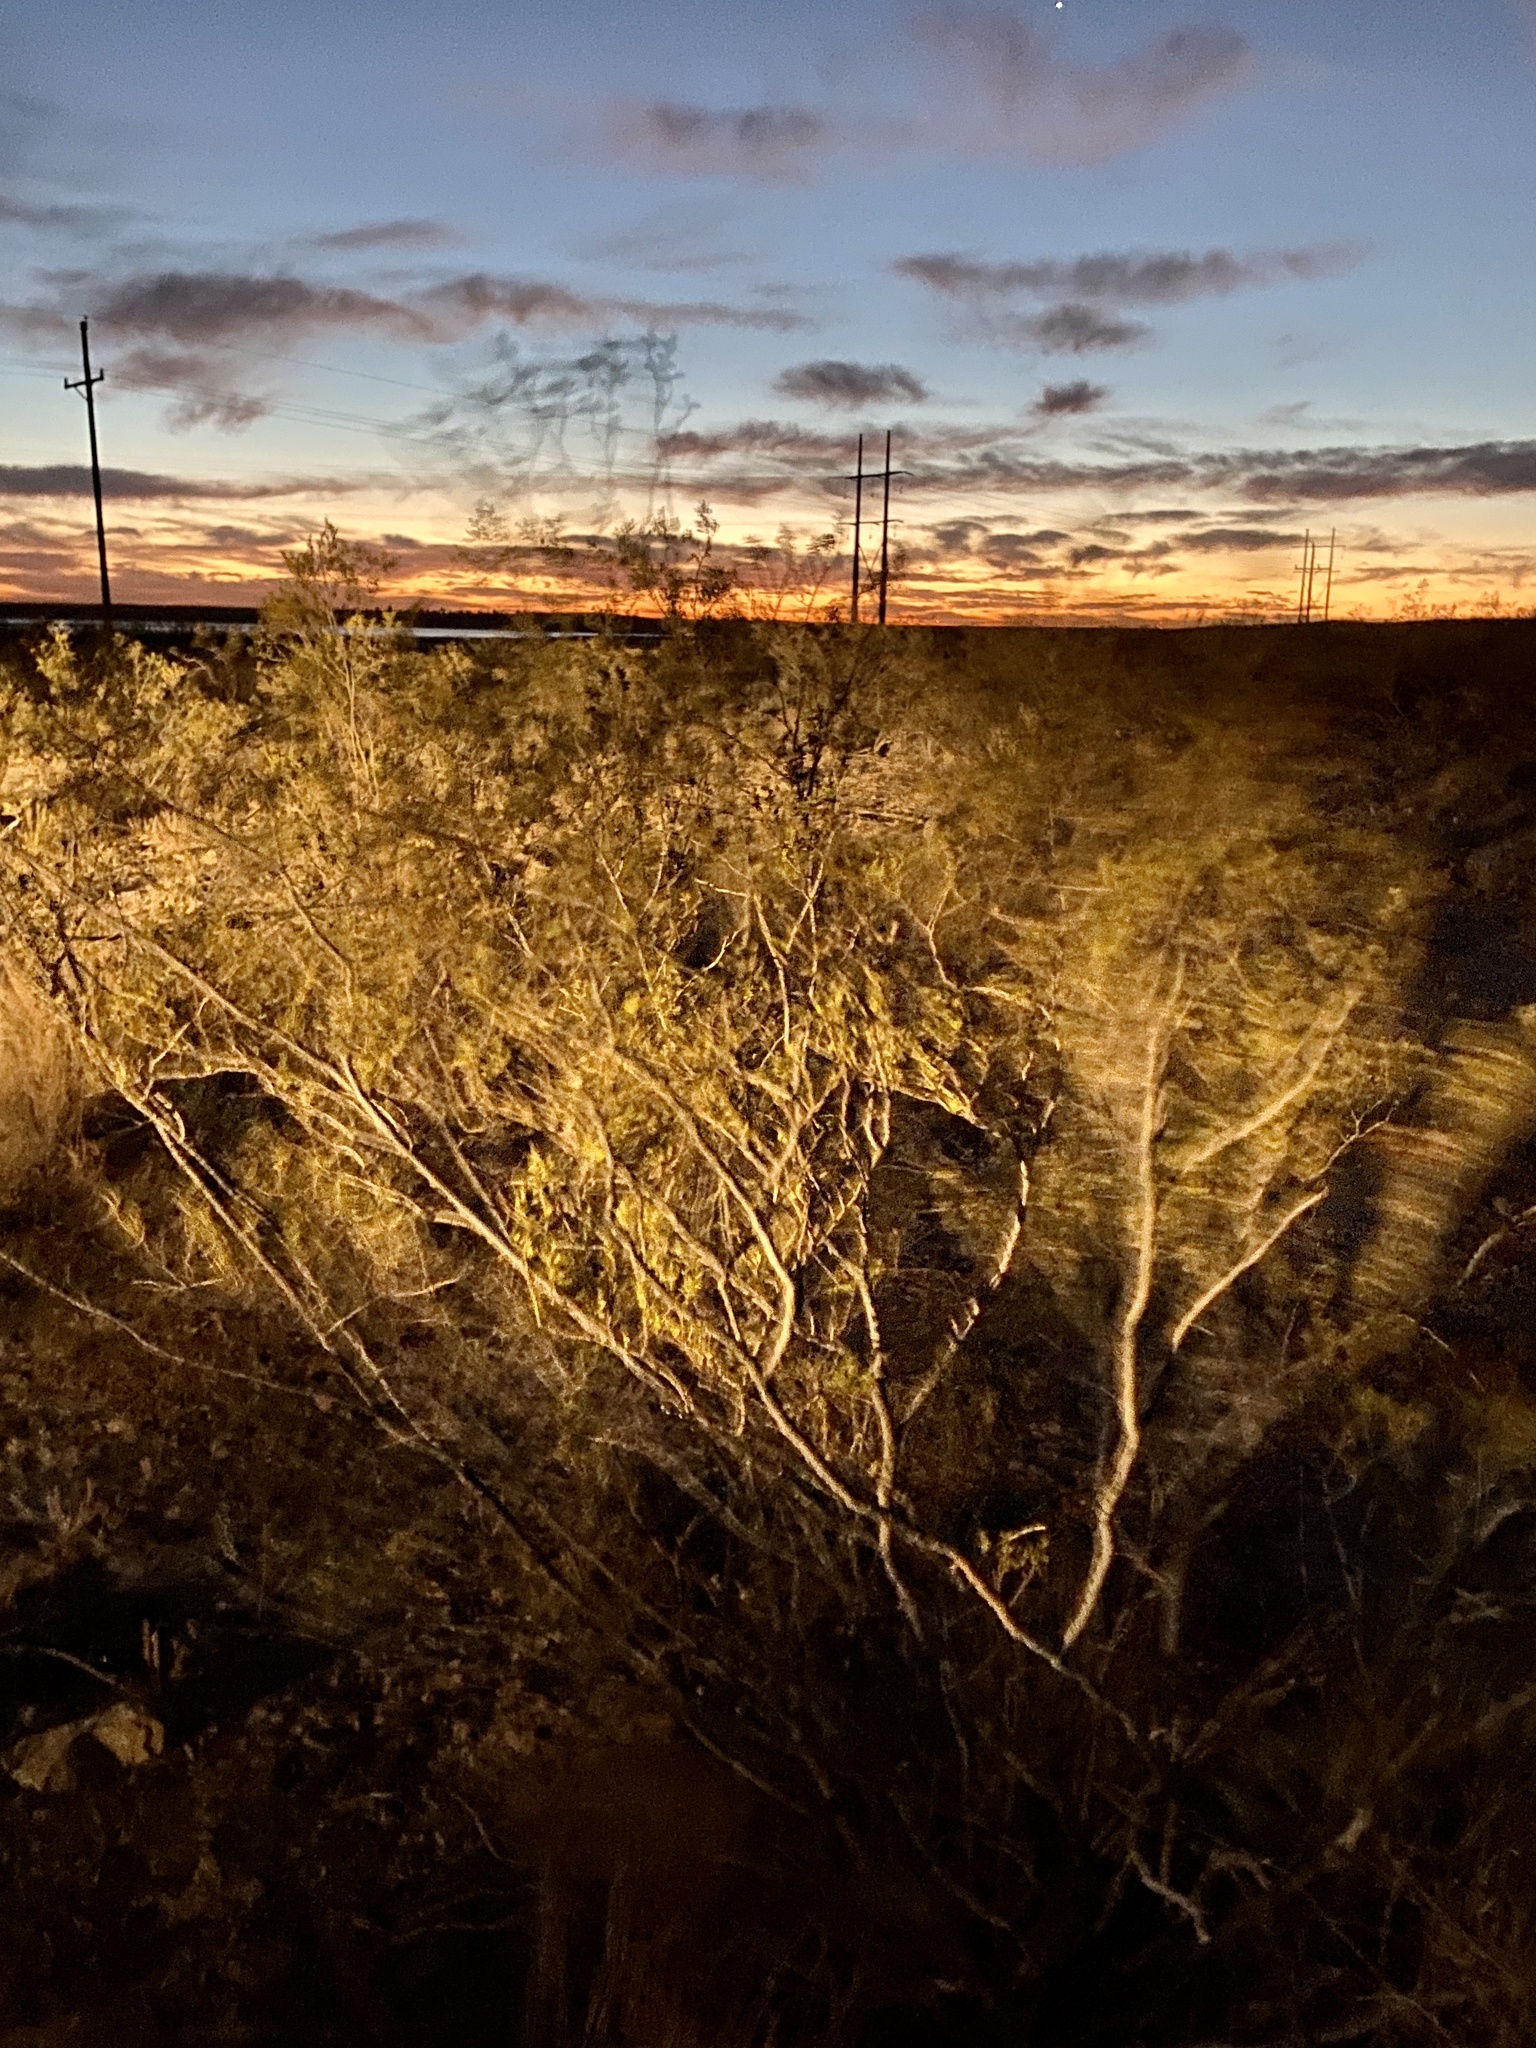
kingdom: Plantae
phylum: Tracheophyta
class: Magnoliopsida
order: Zygophyllales
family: Zygophyllaceae
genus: Larrea
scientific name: Larrea tridentata
